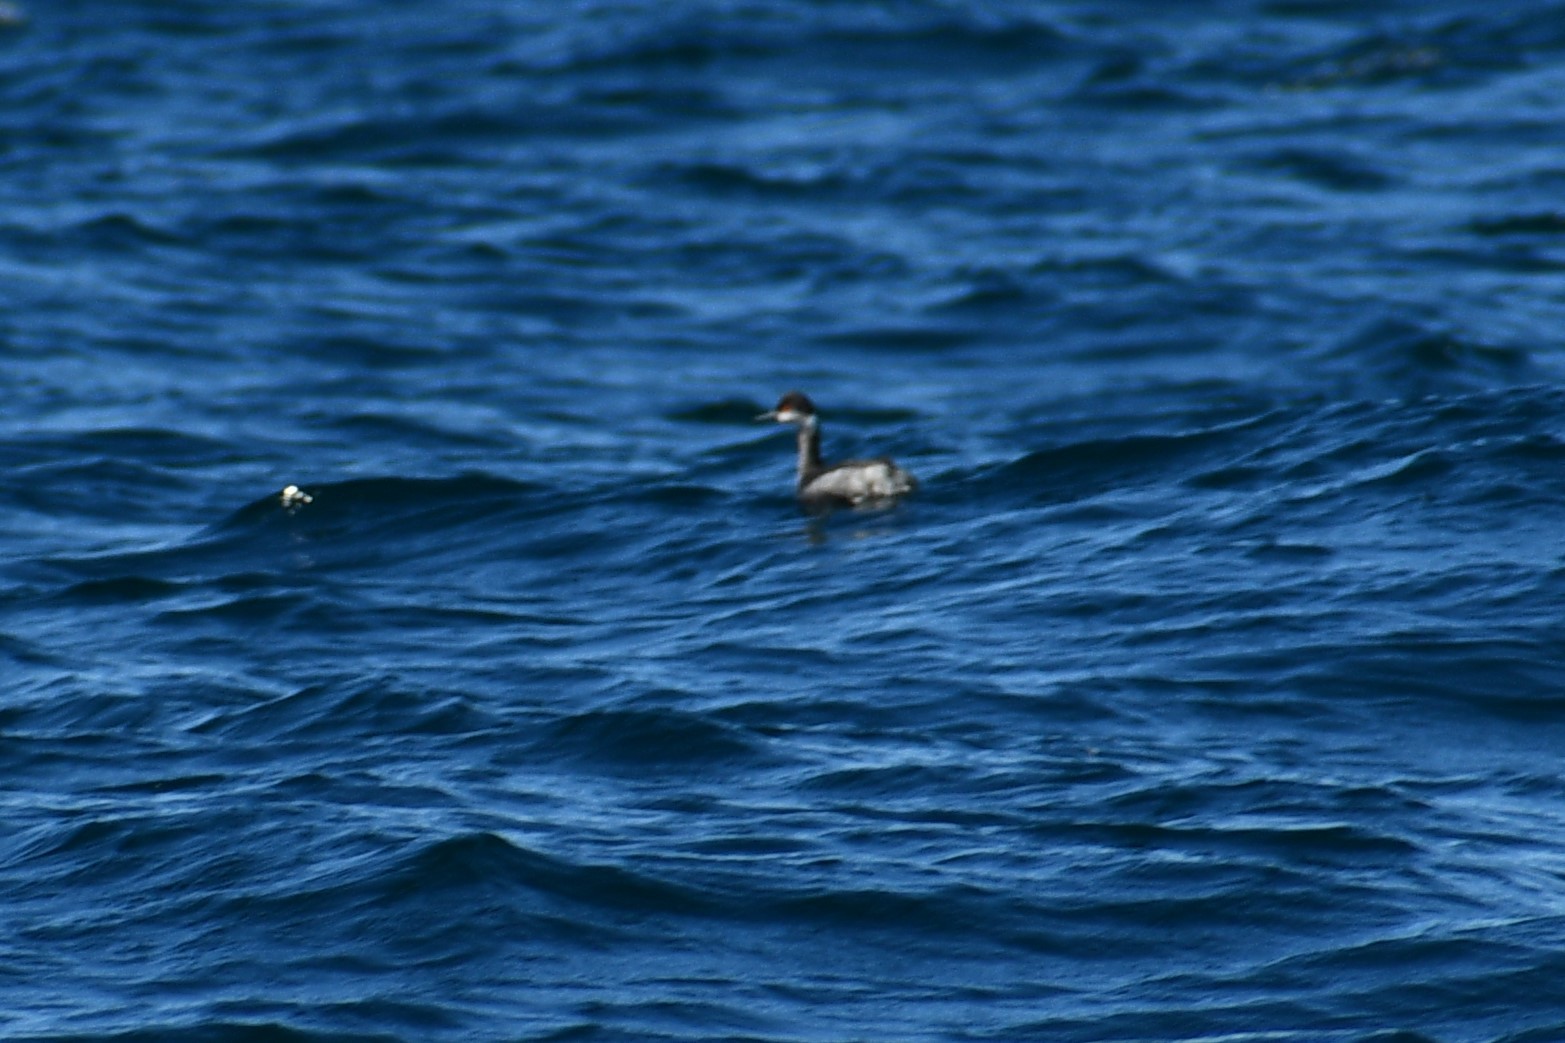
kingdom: Animalia
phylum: Chordata
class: Aves
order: Podicipediformes
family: Podicipedidae
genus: Podiceps
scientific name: Podiceps nigricollis
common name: Black-necked grebe
